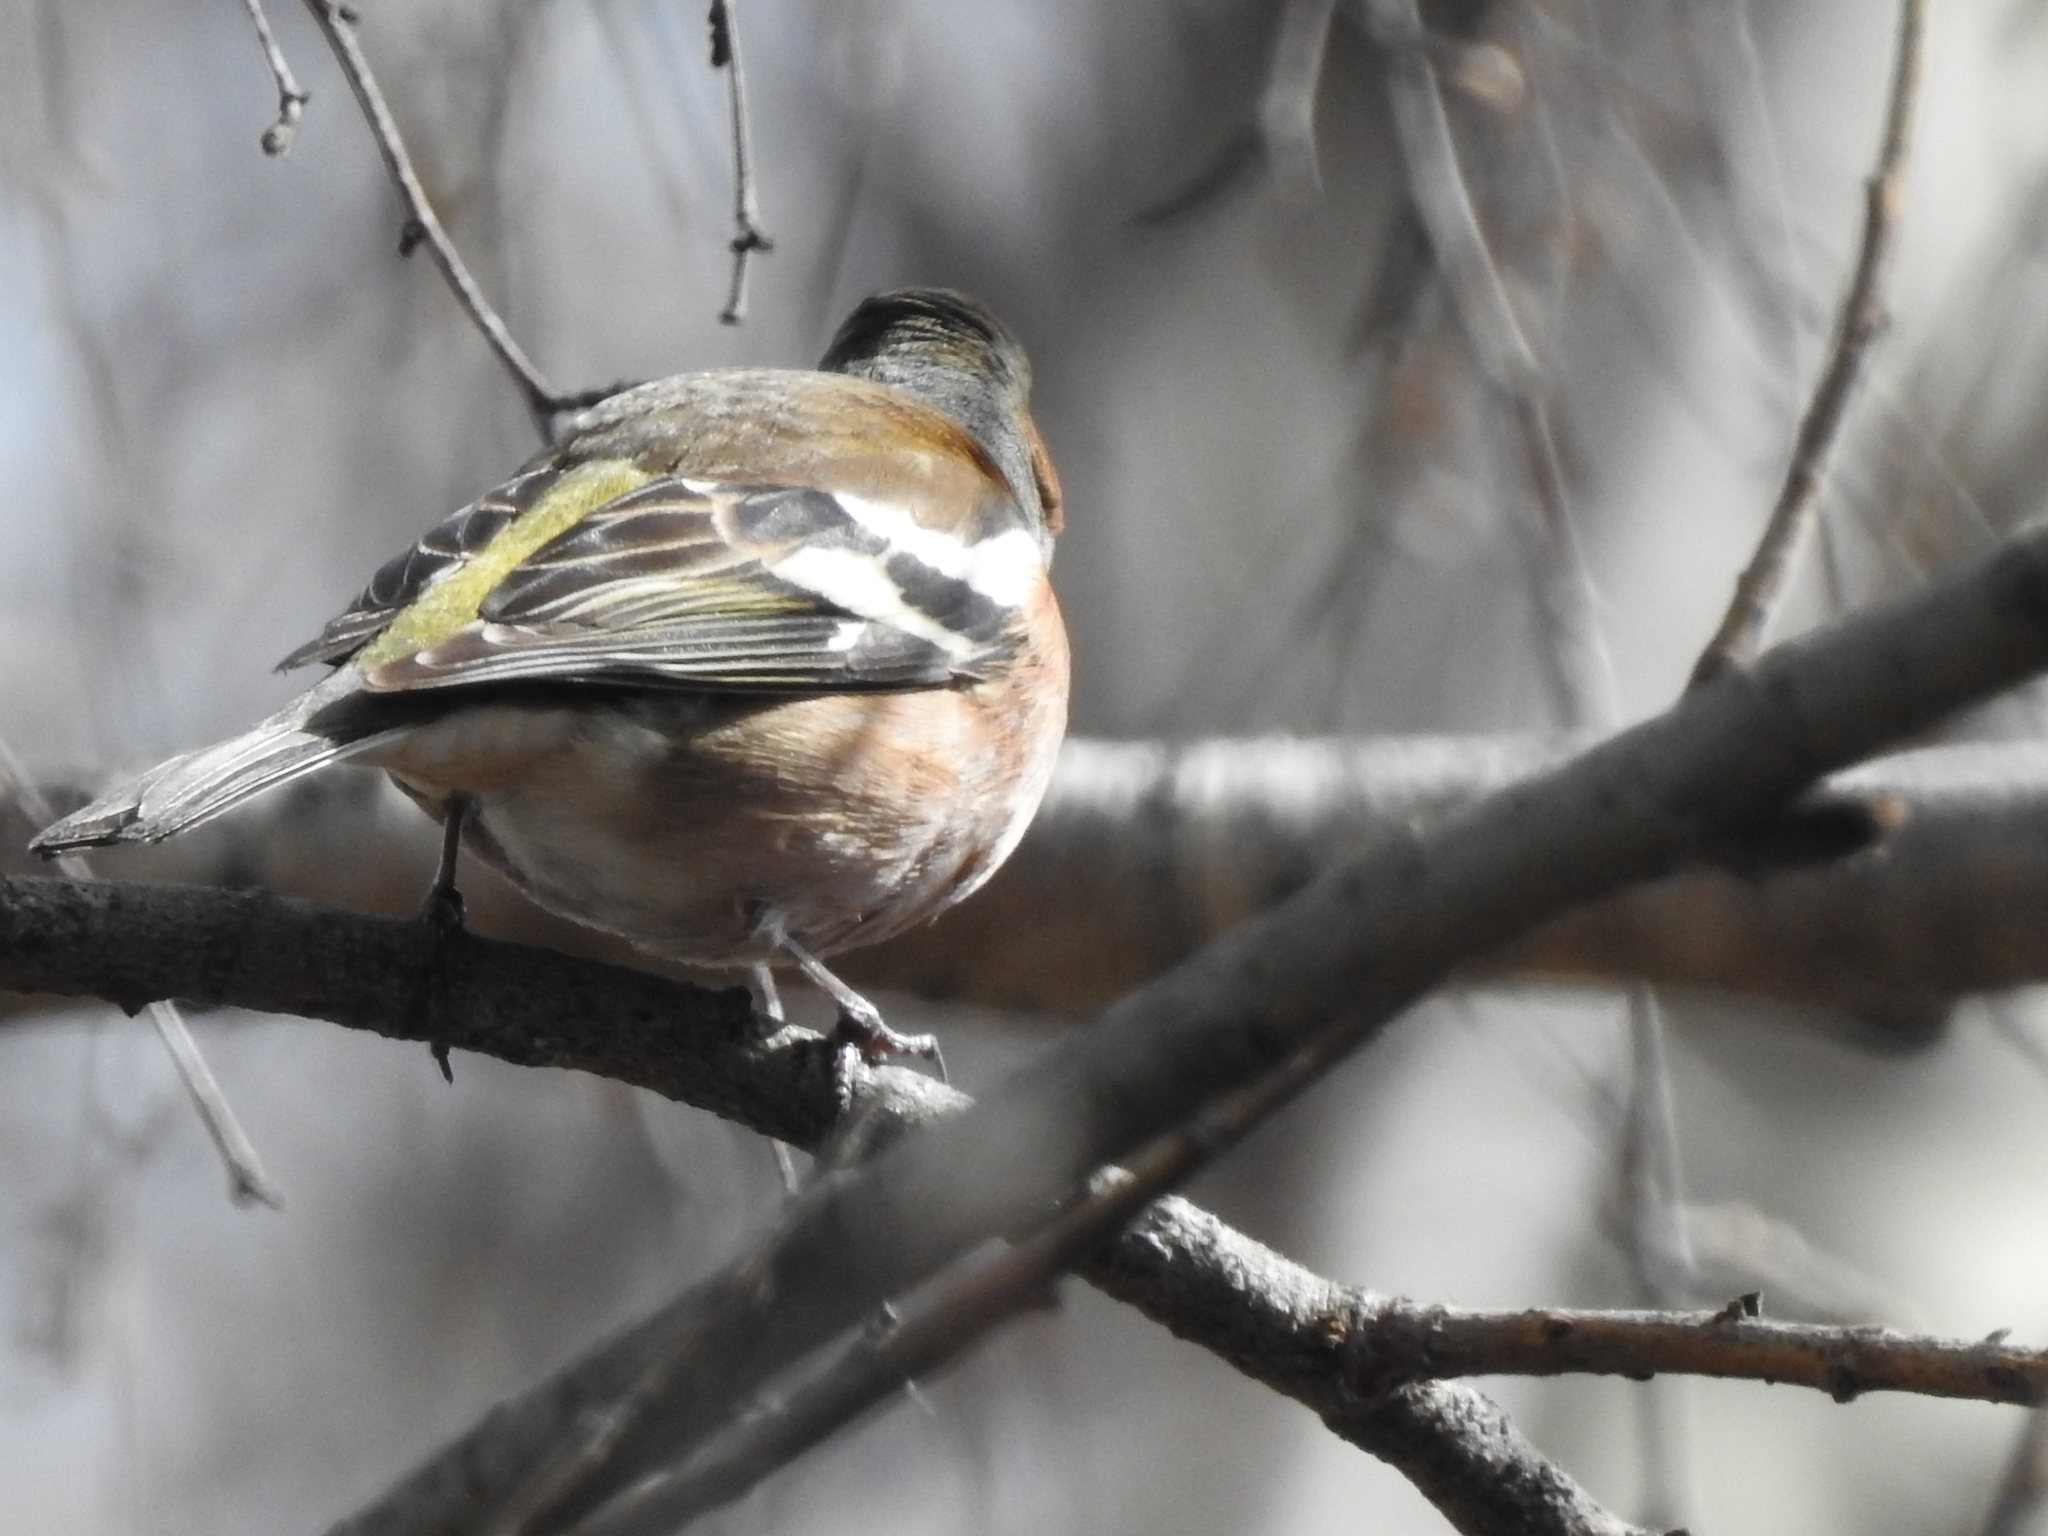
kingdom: Animalia
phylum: Chordata
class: Aves
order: Passeriformes
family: Fringillidae
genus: Fringilla
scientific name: Fringilla coelebs
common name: Common chaffinch
